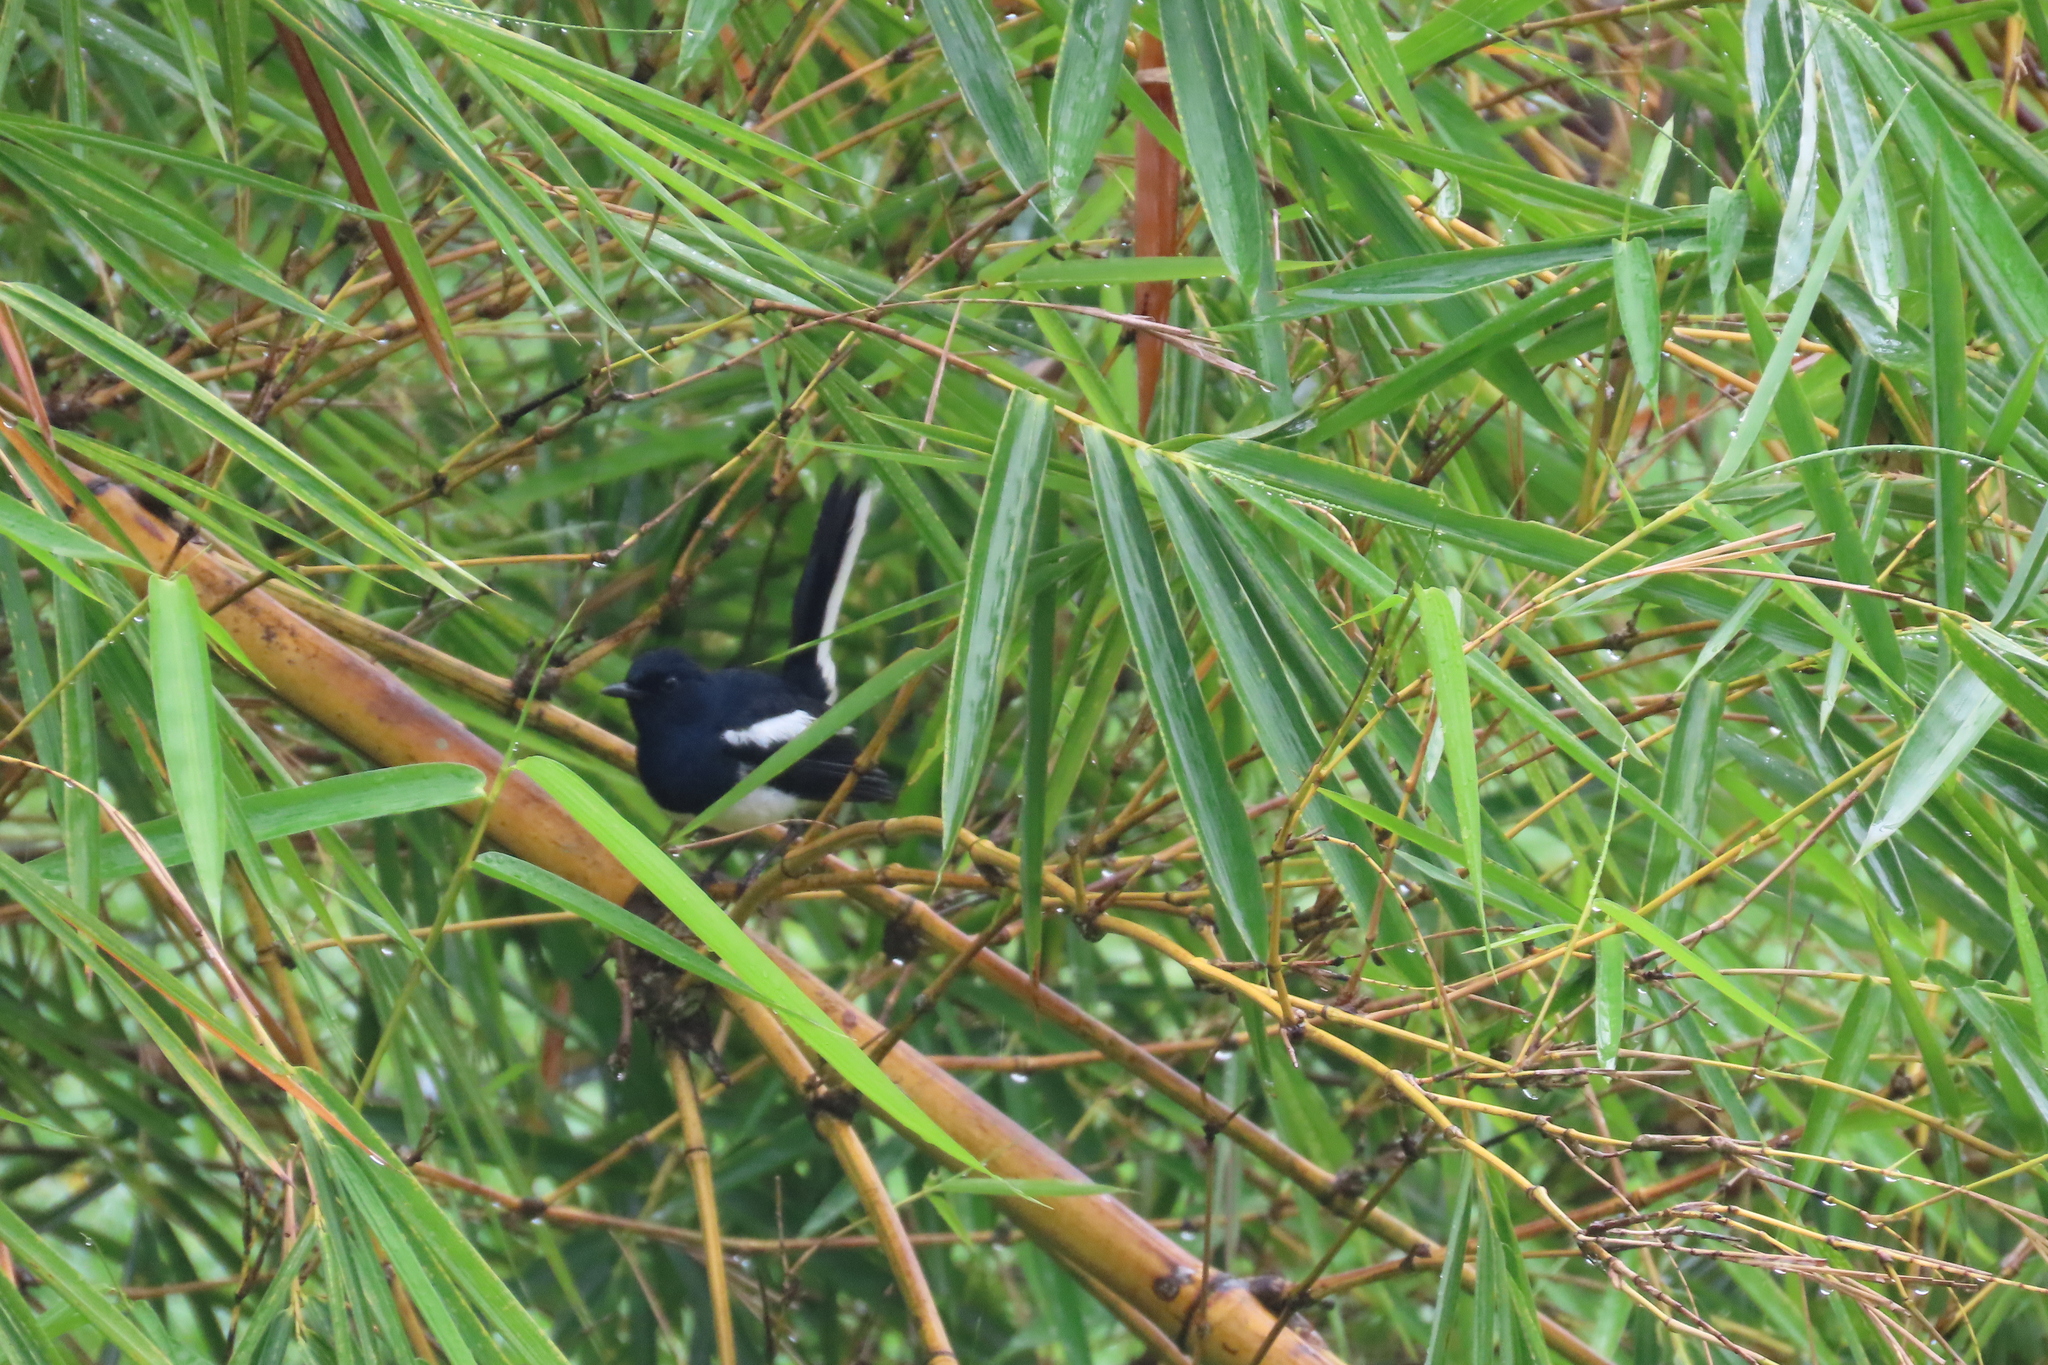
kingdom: Animalia
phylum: Chordata
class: Aves
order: Passeriformes
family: Muscicapidae
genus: Copsychus
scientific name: Copsychus saularis
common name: Oriental magpie-robin
